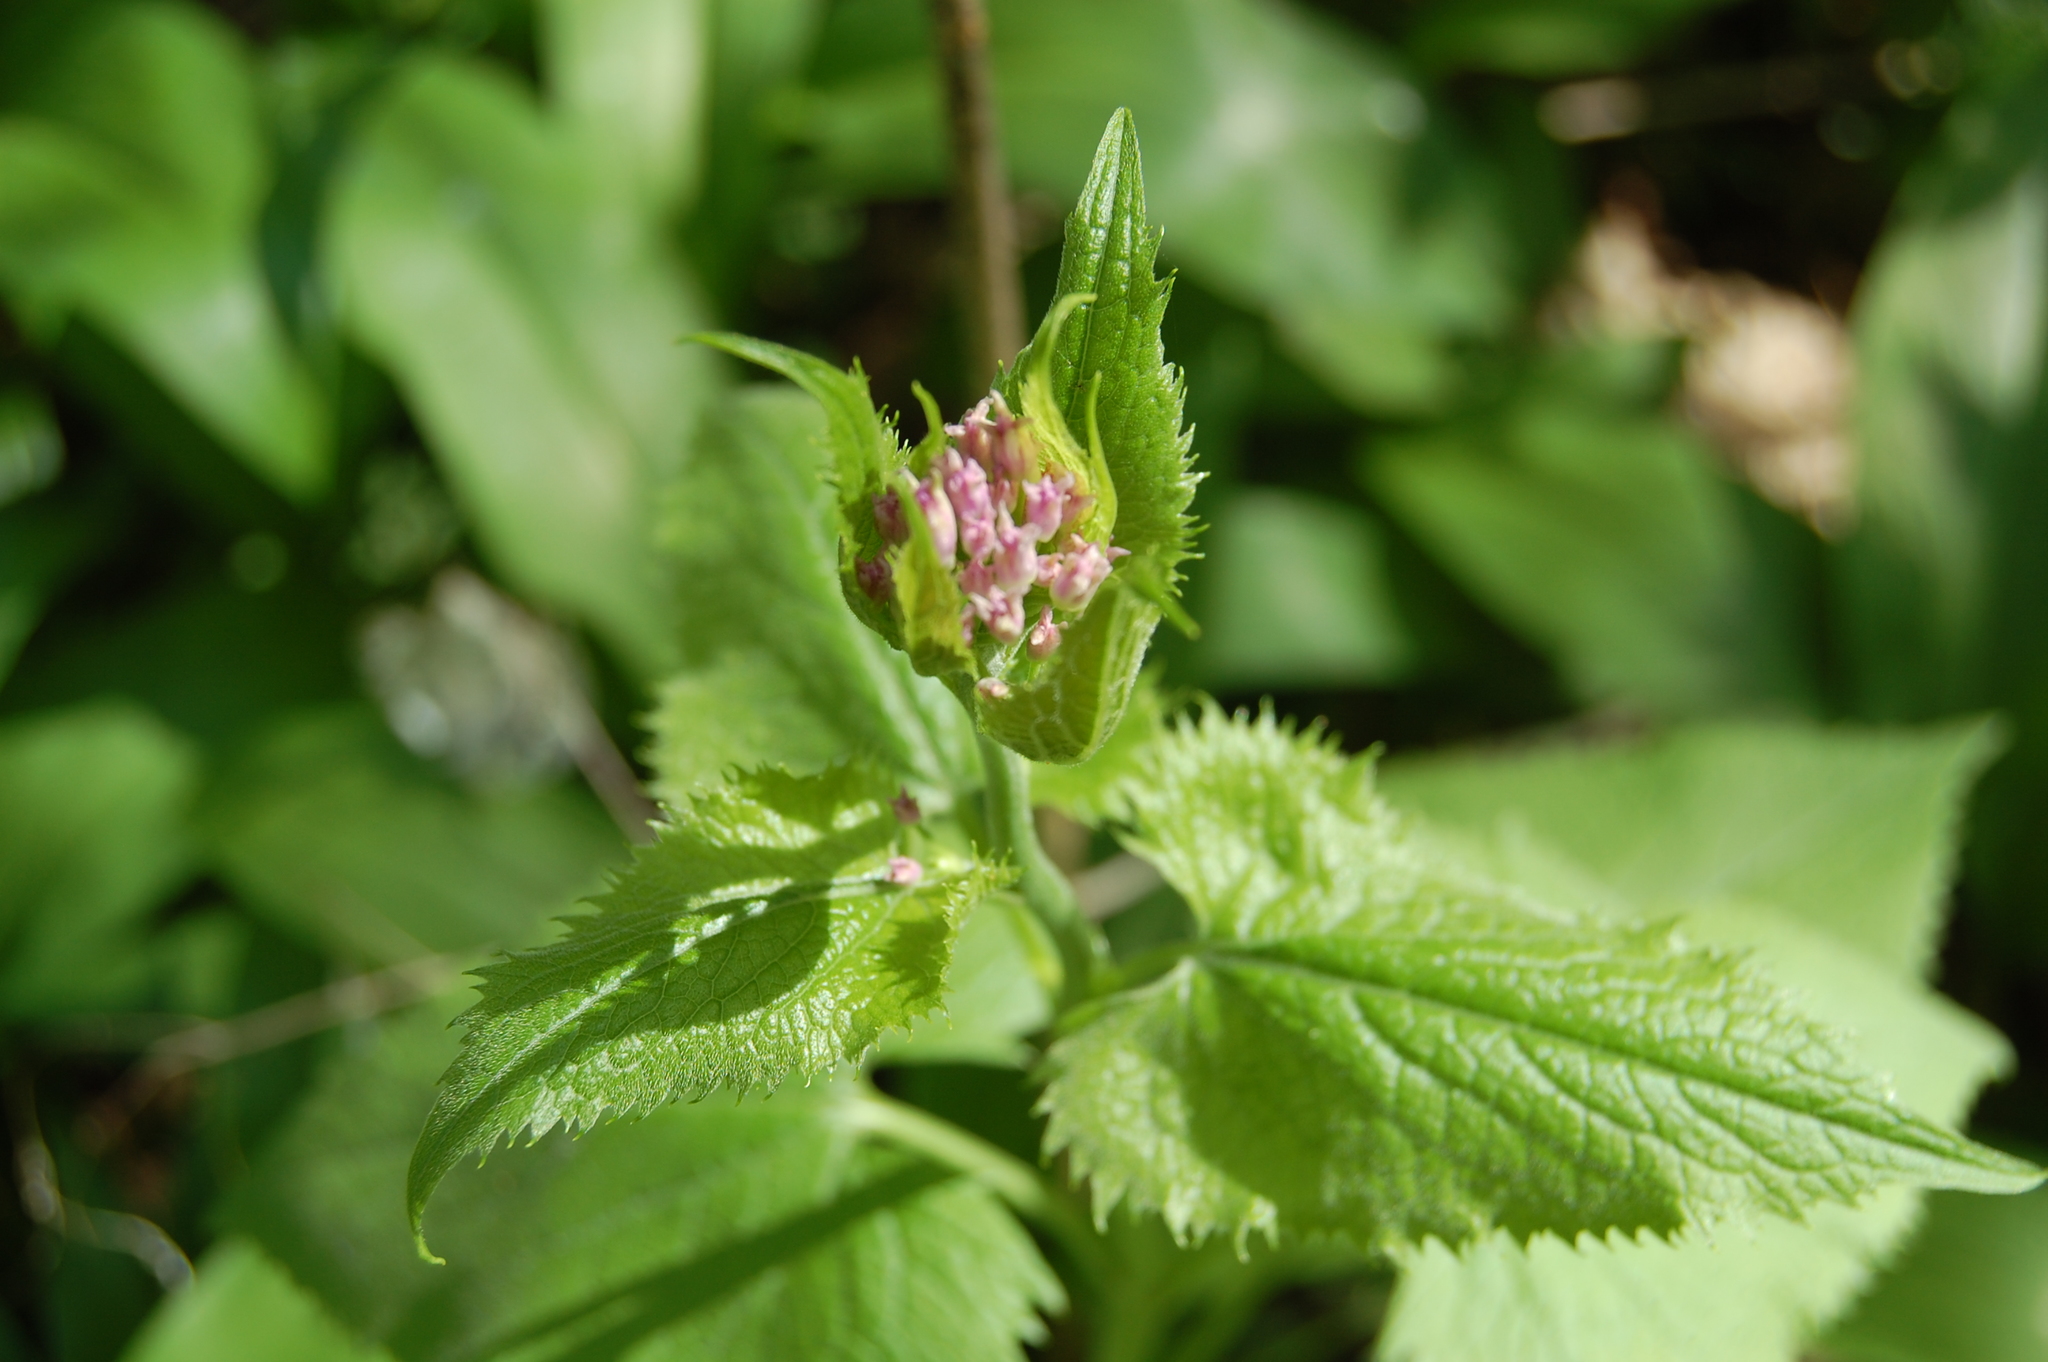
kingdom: Plantae
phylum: Tracheophyta
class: Magnoliopsida
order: Brassicales
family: Brassicaceae
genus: Lunaria
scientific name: Lunaria rediviva
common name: Perennial honesty
